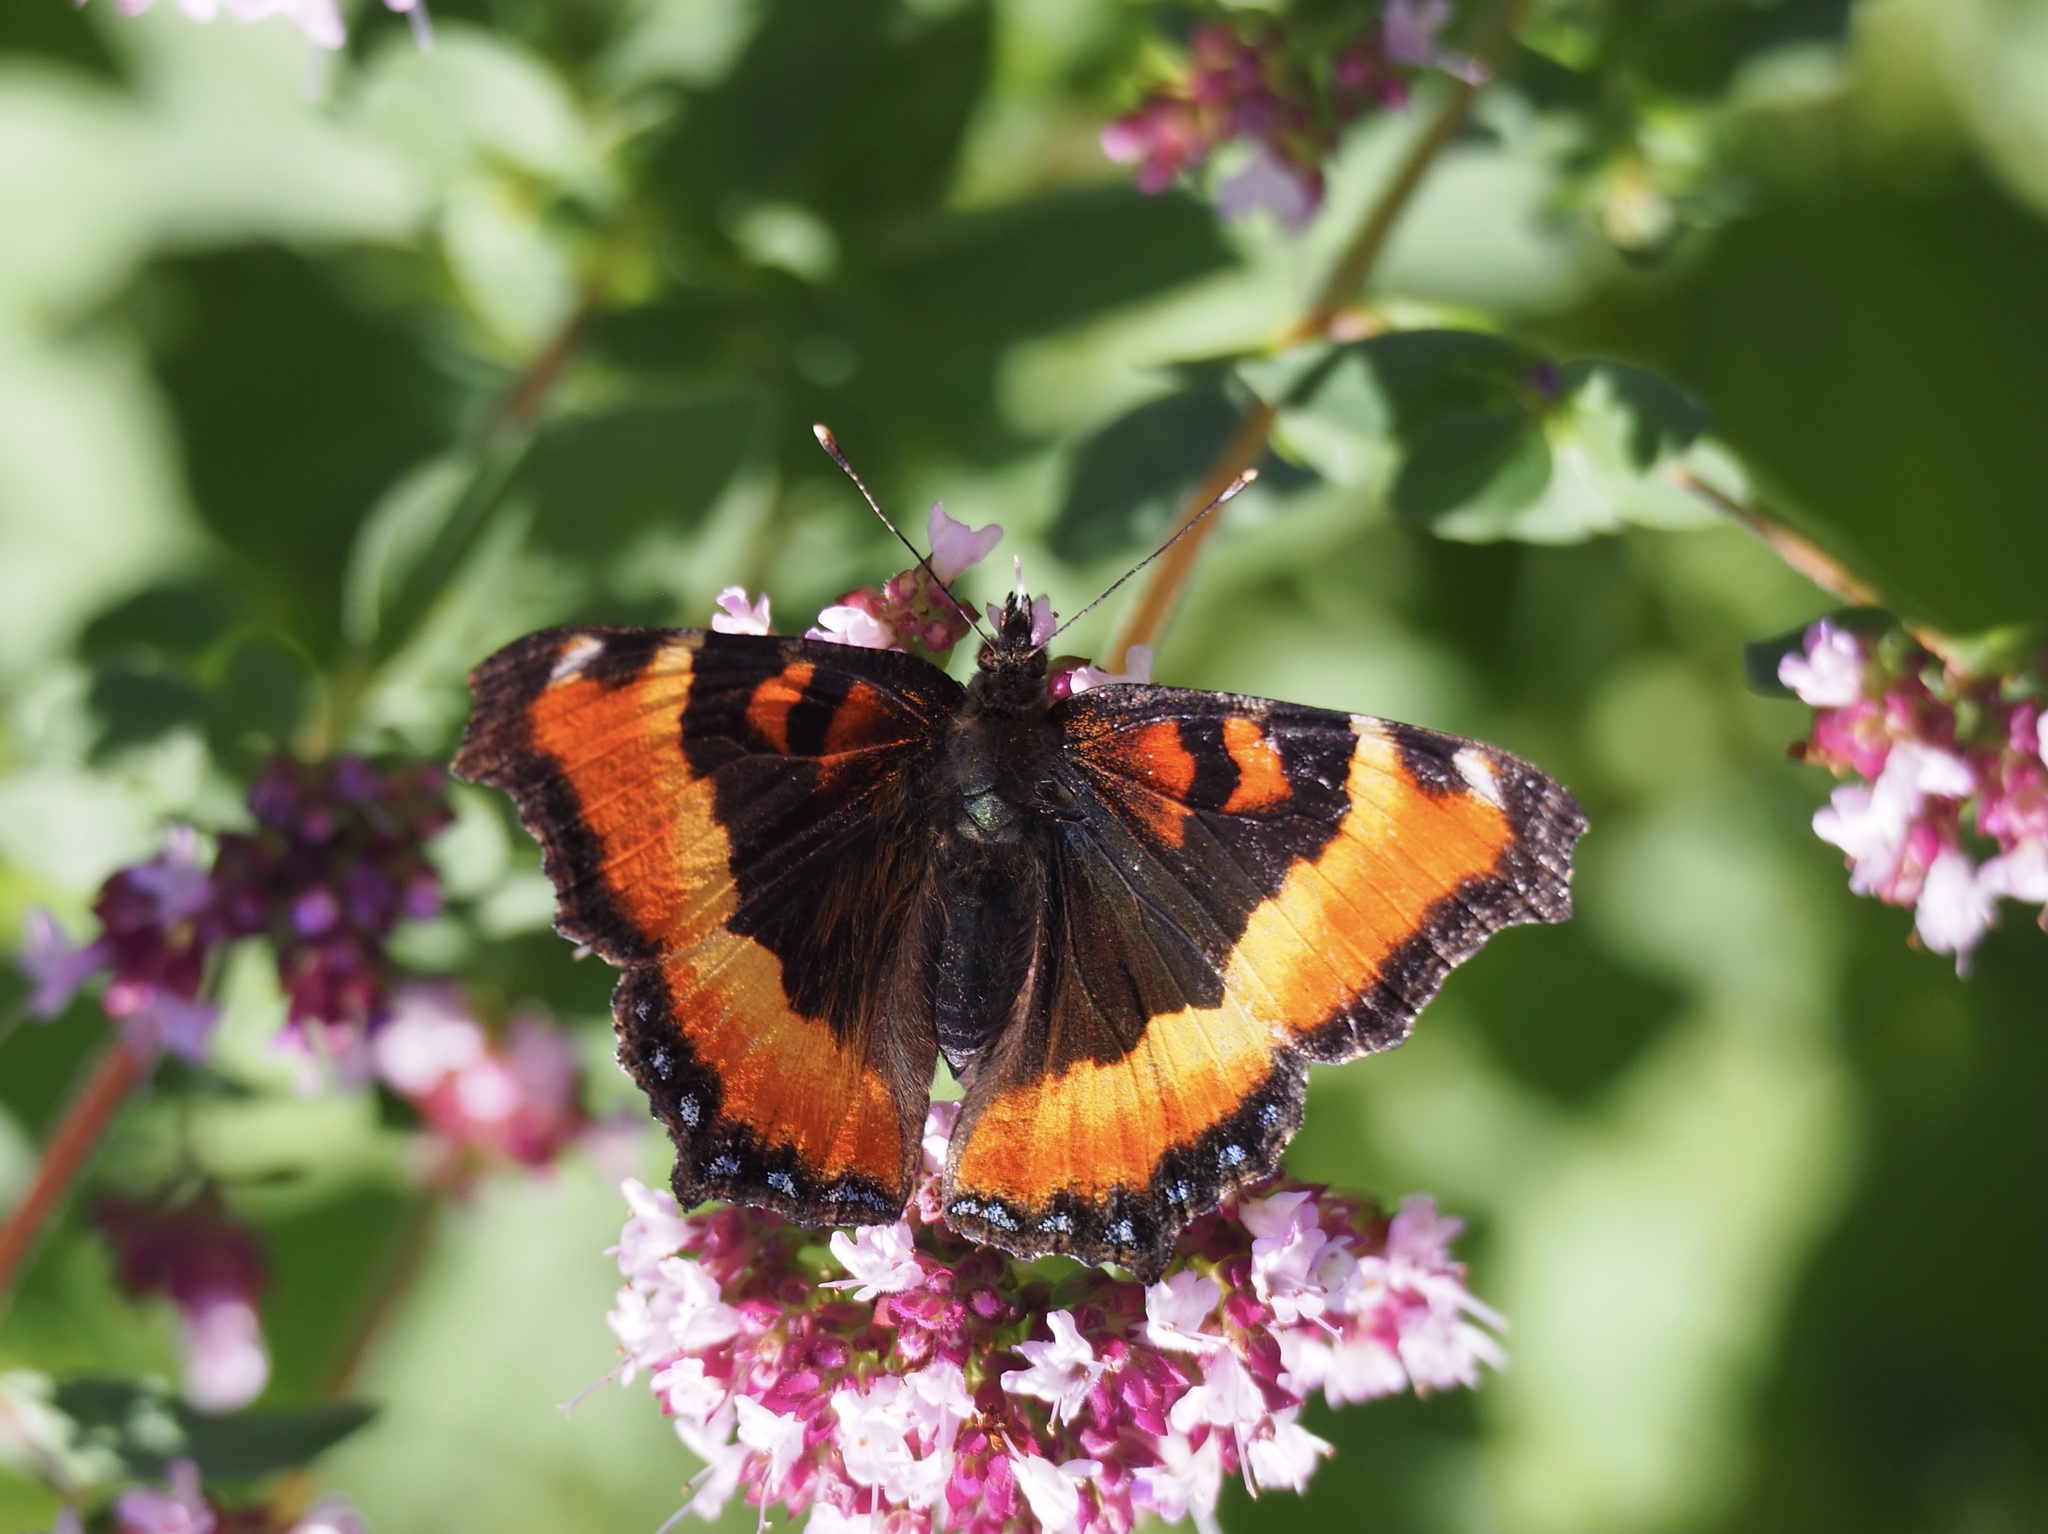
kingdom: Animalia
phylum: Arthropoda
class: Insecta
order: Lepidoptera
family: Nymphalidae
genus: Aglais
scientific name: Aglais milberti
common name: Milbert's tortoiseshell
